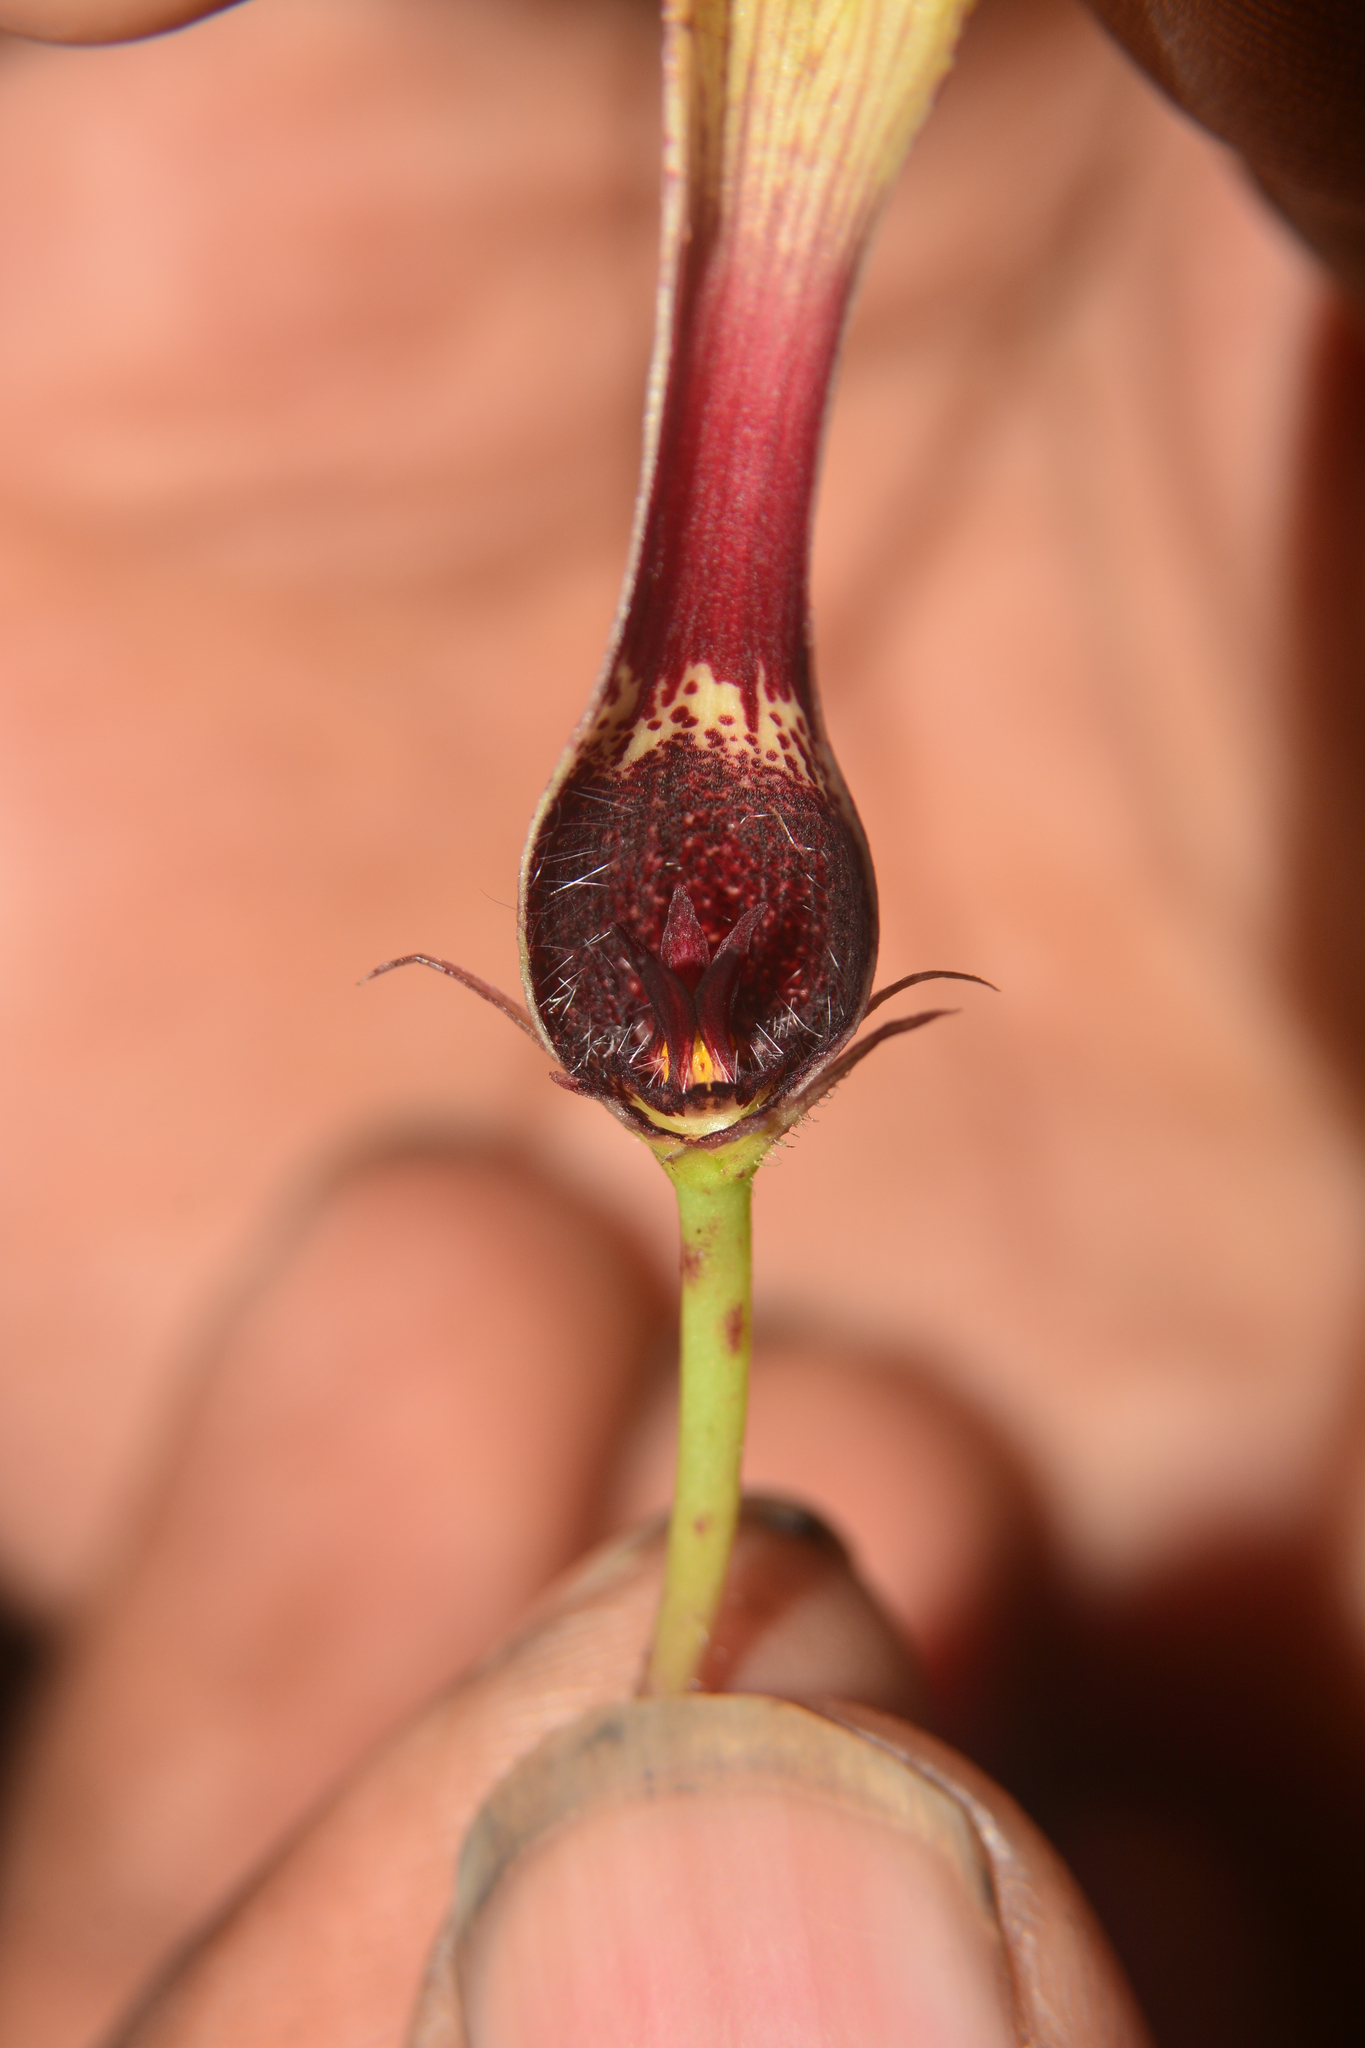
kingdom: Plantae
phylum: Tracheophyta
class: Magnoliopsida
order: Gentianales
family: Apocynaceae
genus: Ceropegia
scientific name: Ceropegia vincifolia
